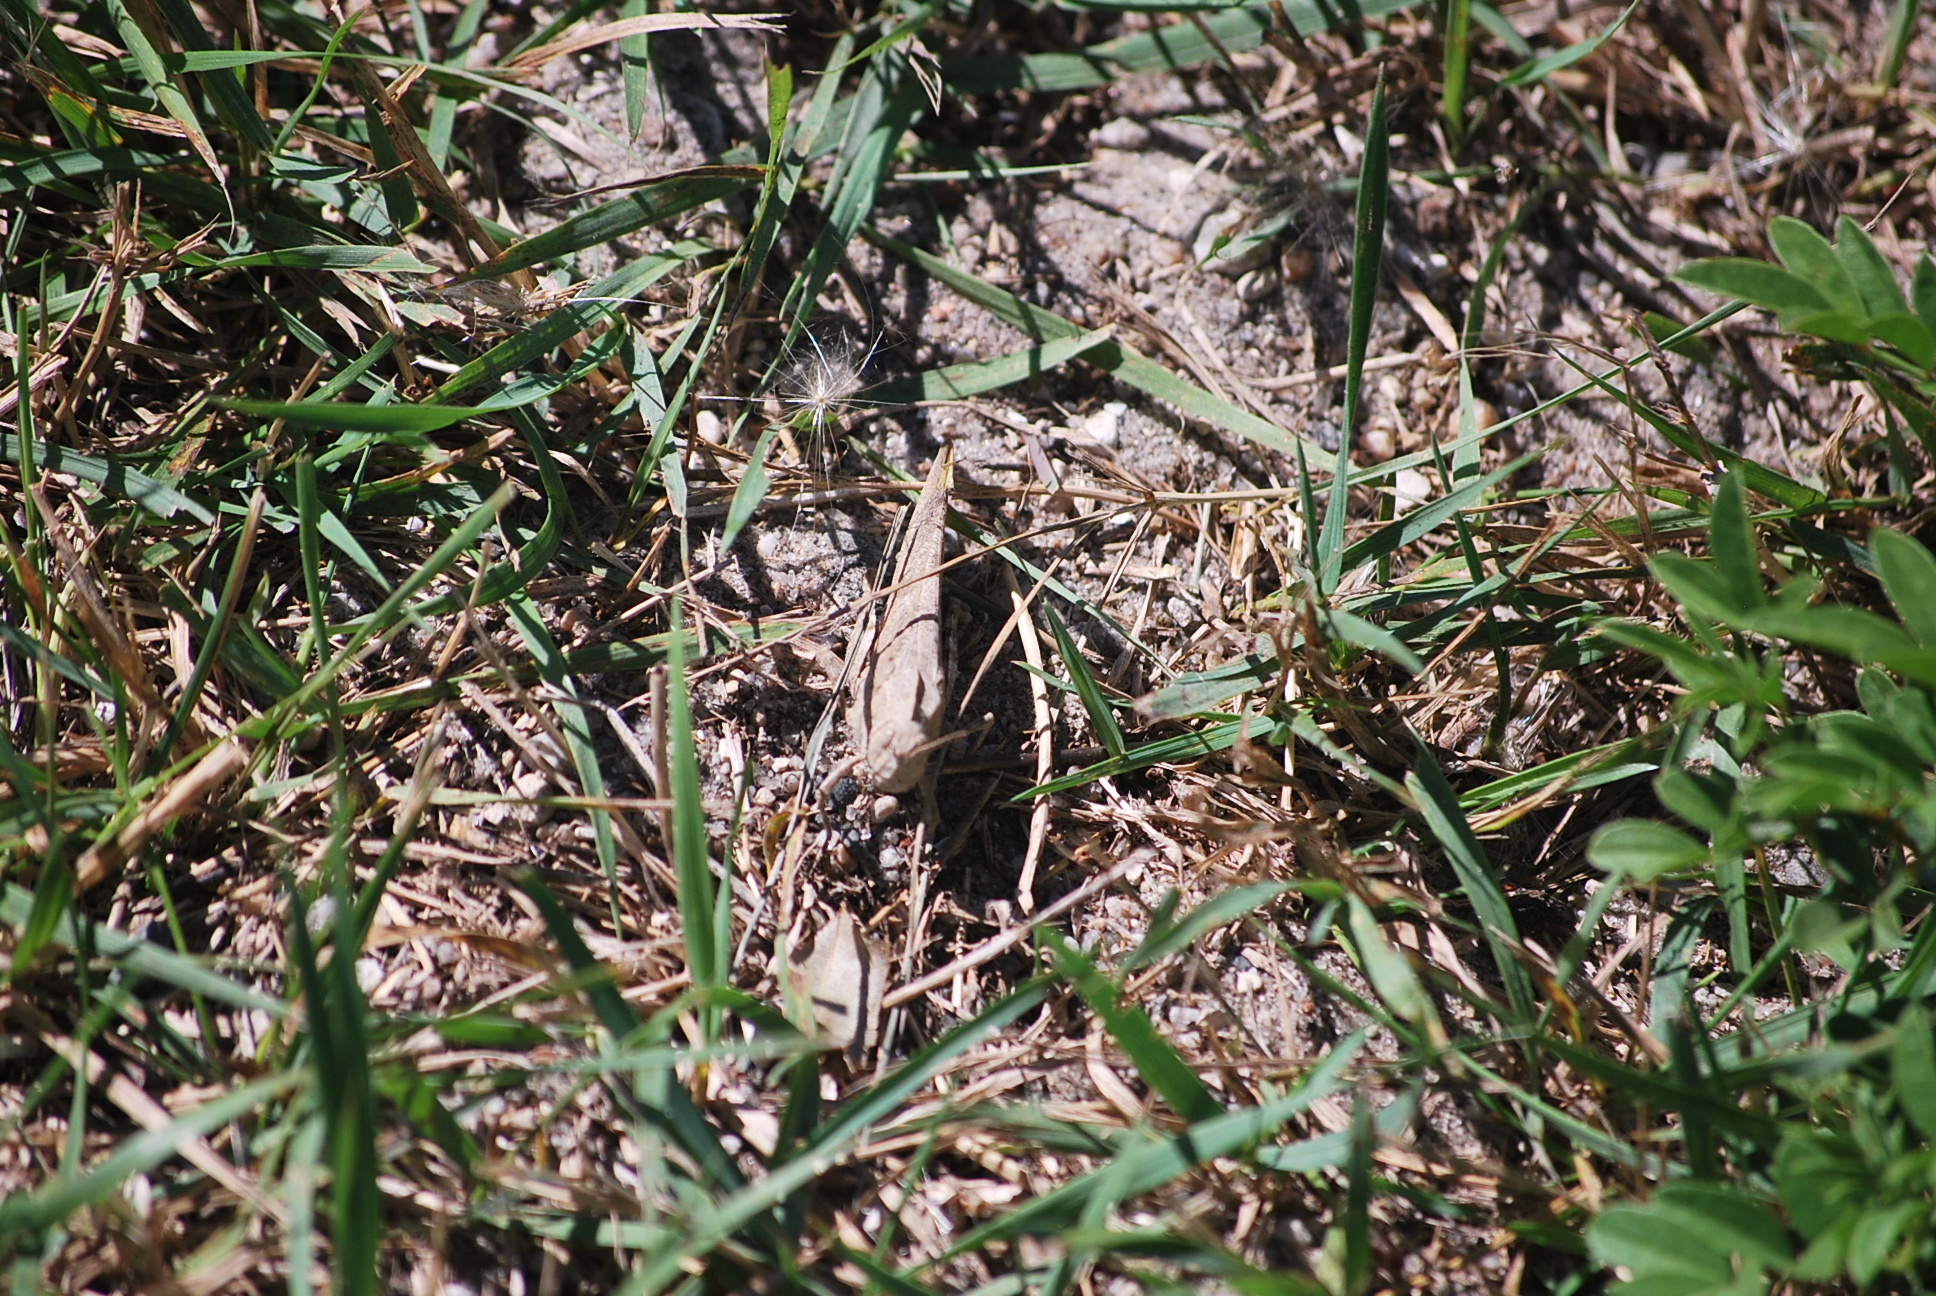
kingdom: Animalia
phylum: Arthropoda
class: Insecta
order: Orthoptera
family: Acrididae
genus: Dissosteira
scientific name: Dissosteira carolina
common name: Carolina grasshopper
